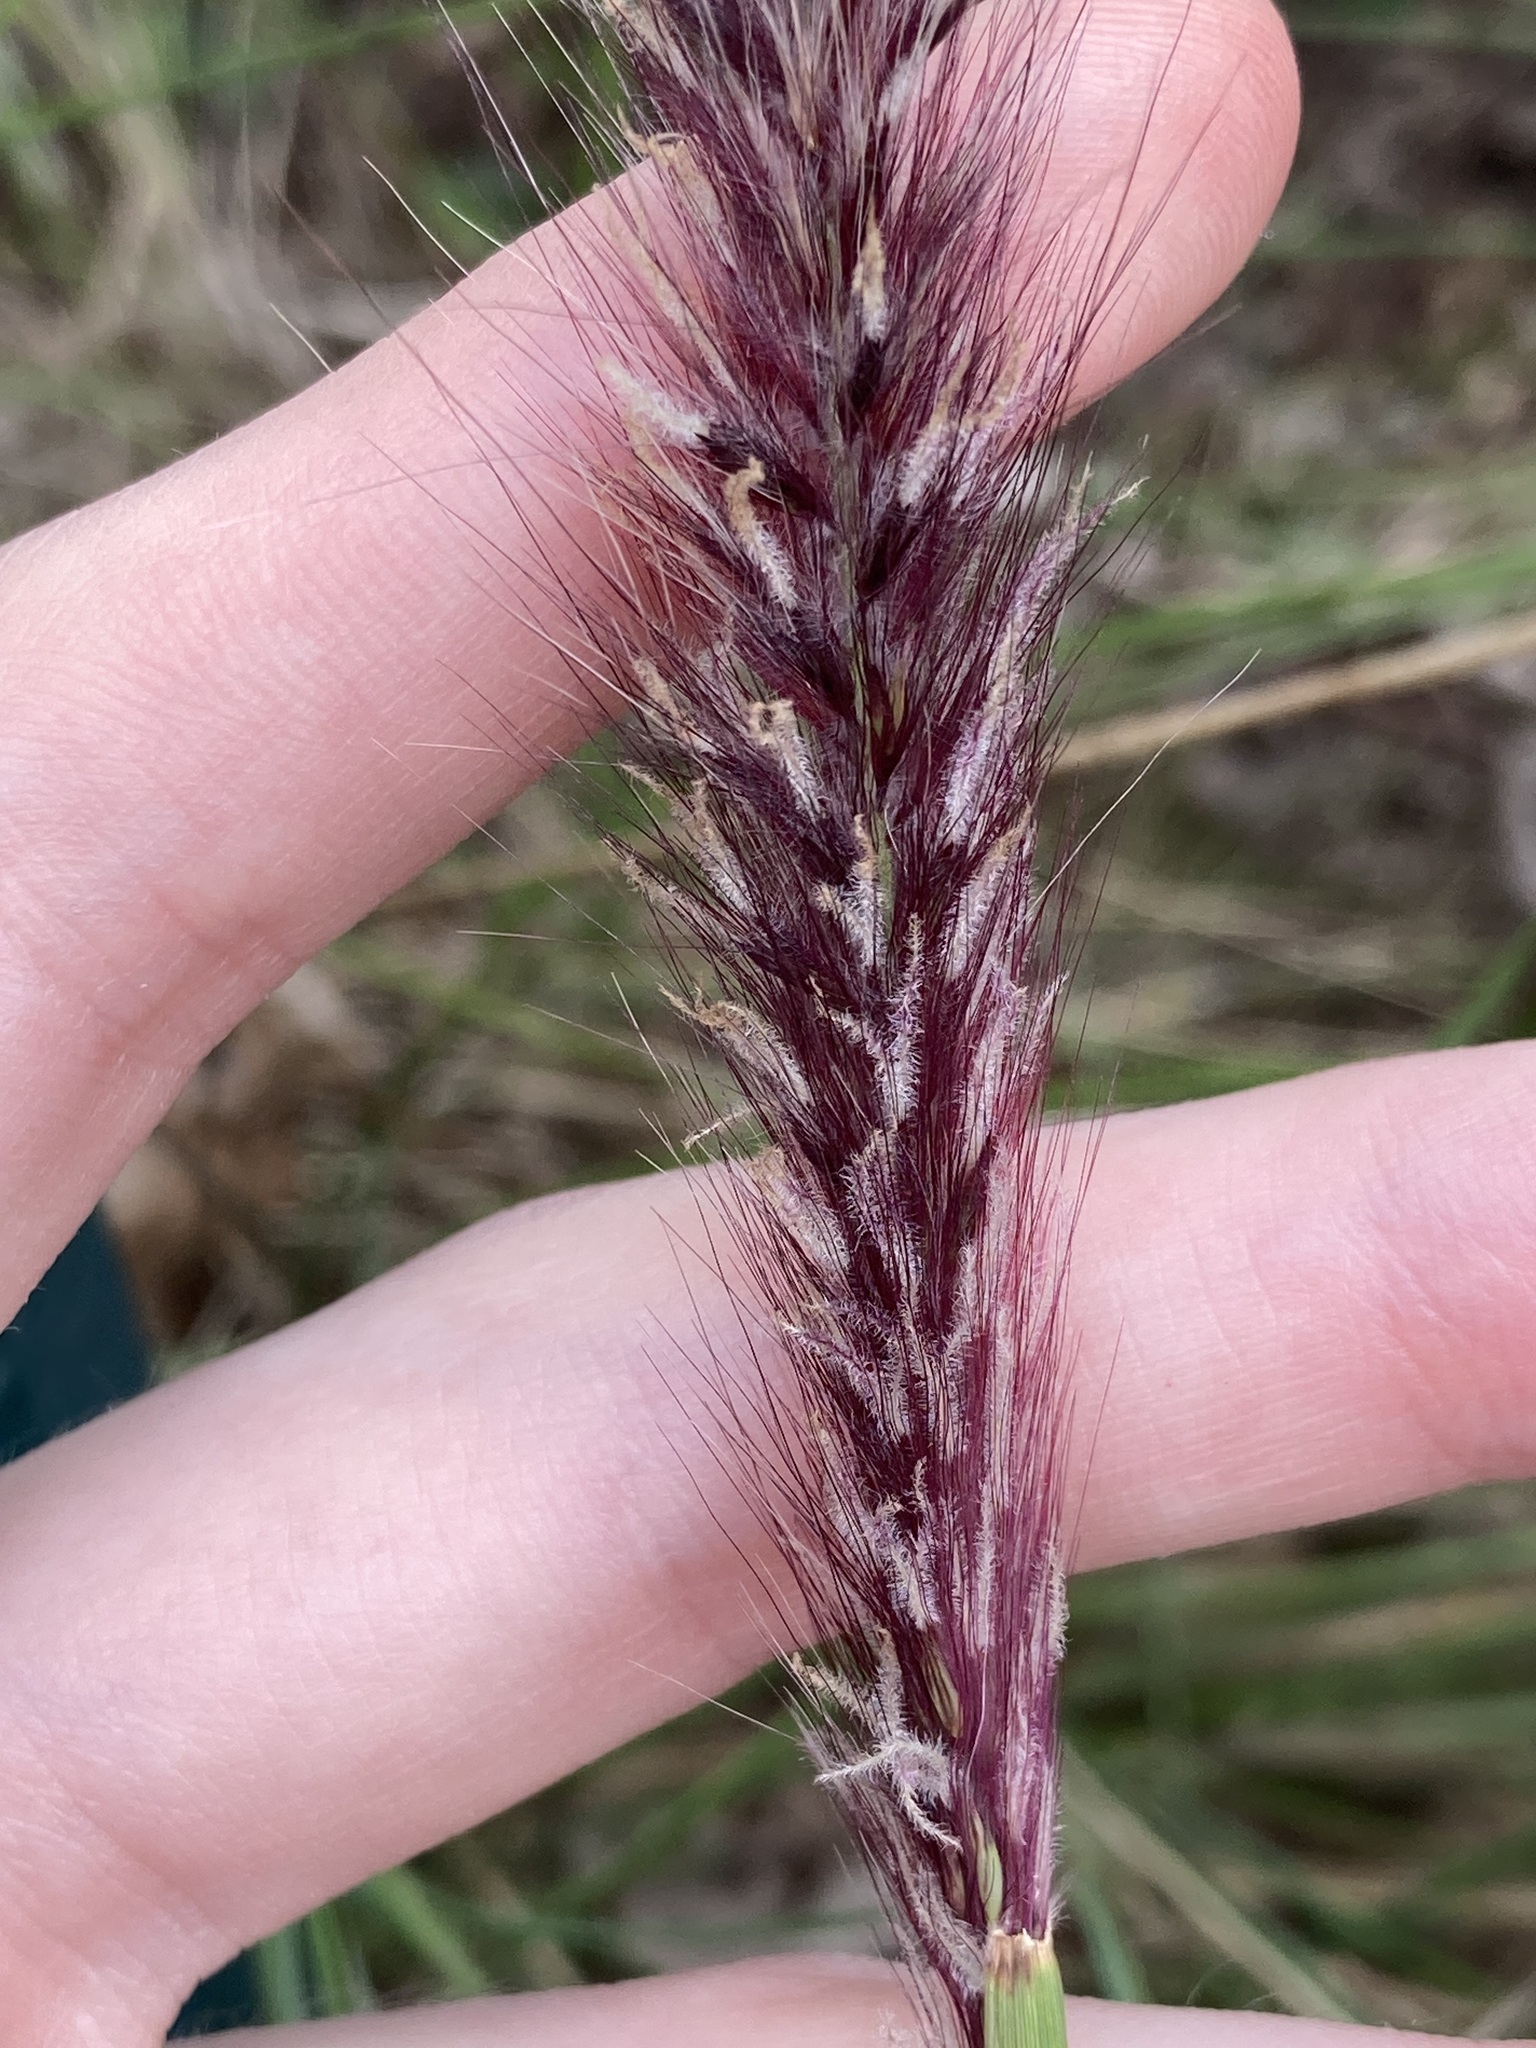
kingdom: Plantae
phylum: Tracheophyta
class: Liliopsida
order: Poales
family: Poaceae
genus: Cenchrus
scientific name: Cenchrus setaceus
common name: Crimson fountaingrass
